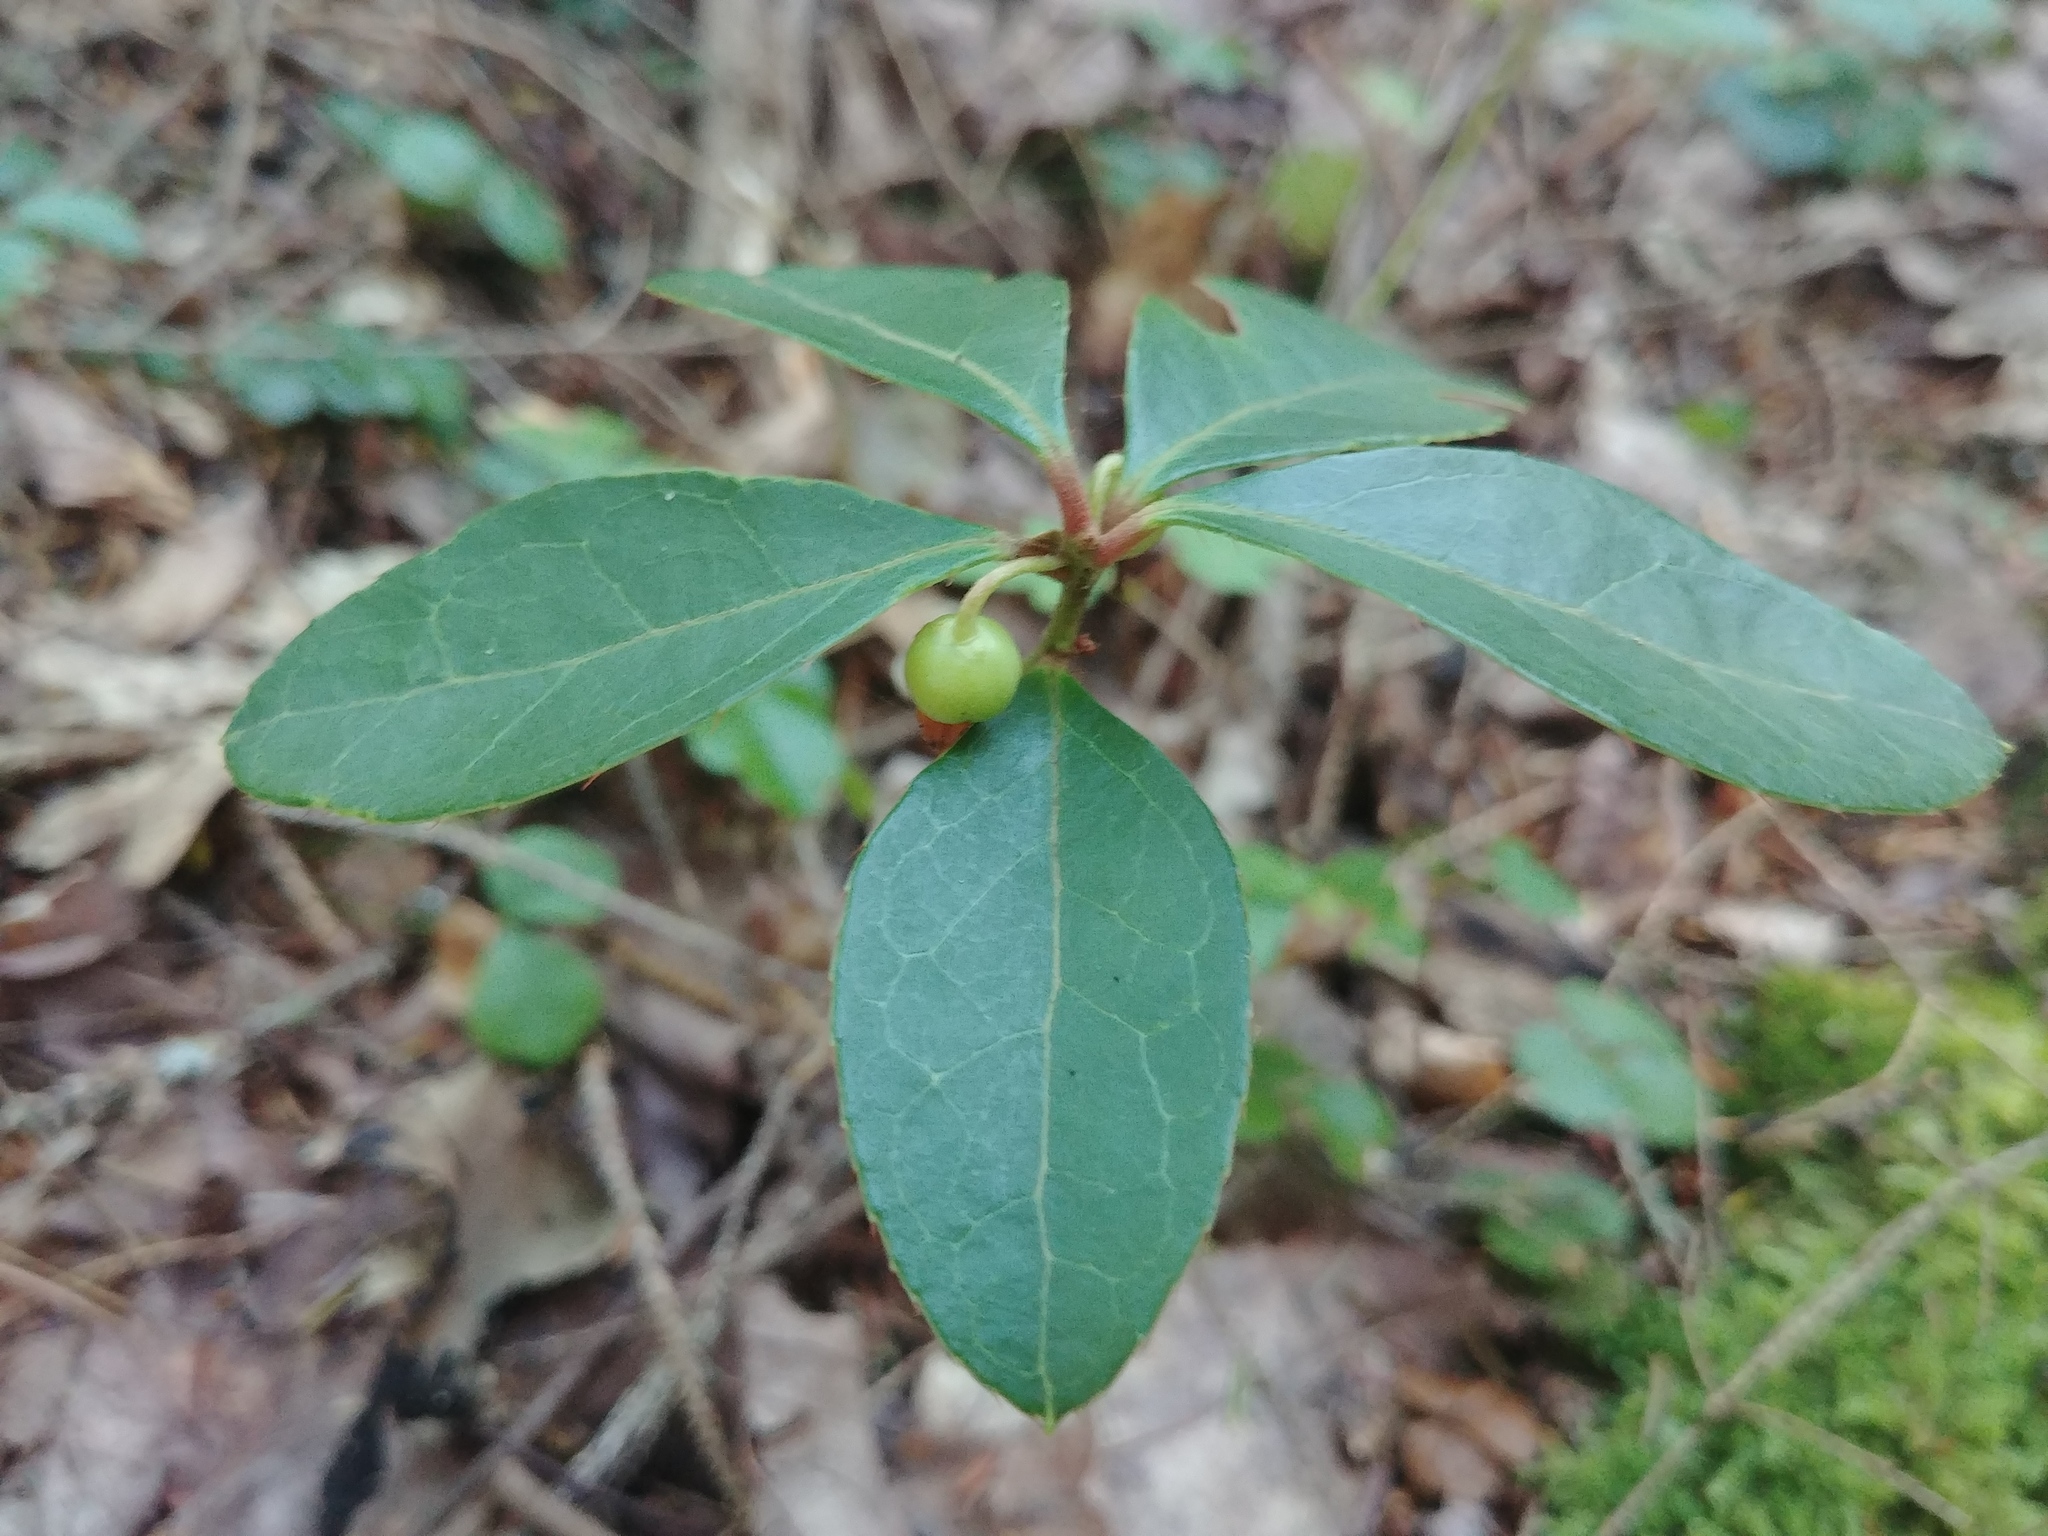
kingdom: Plantae
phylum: Tracheophyta
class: Magnoliopsida
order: Ericales
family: Ericaceae
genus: Gaultheria
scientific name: Gaultheria procumbens
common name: Checkerberry
